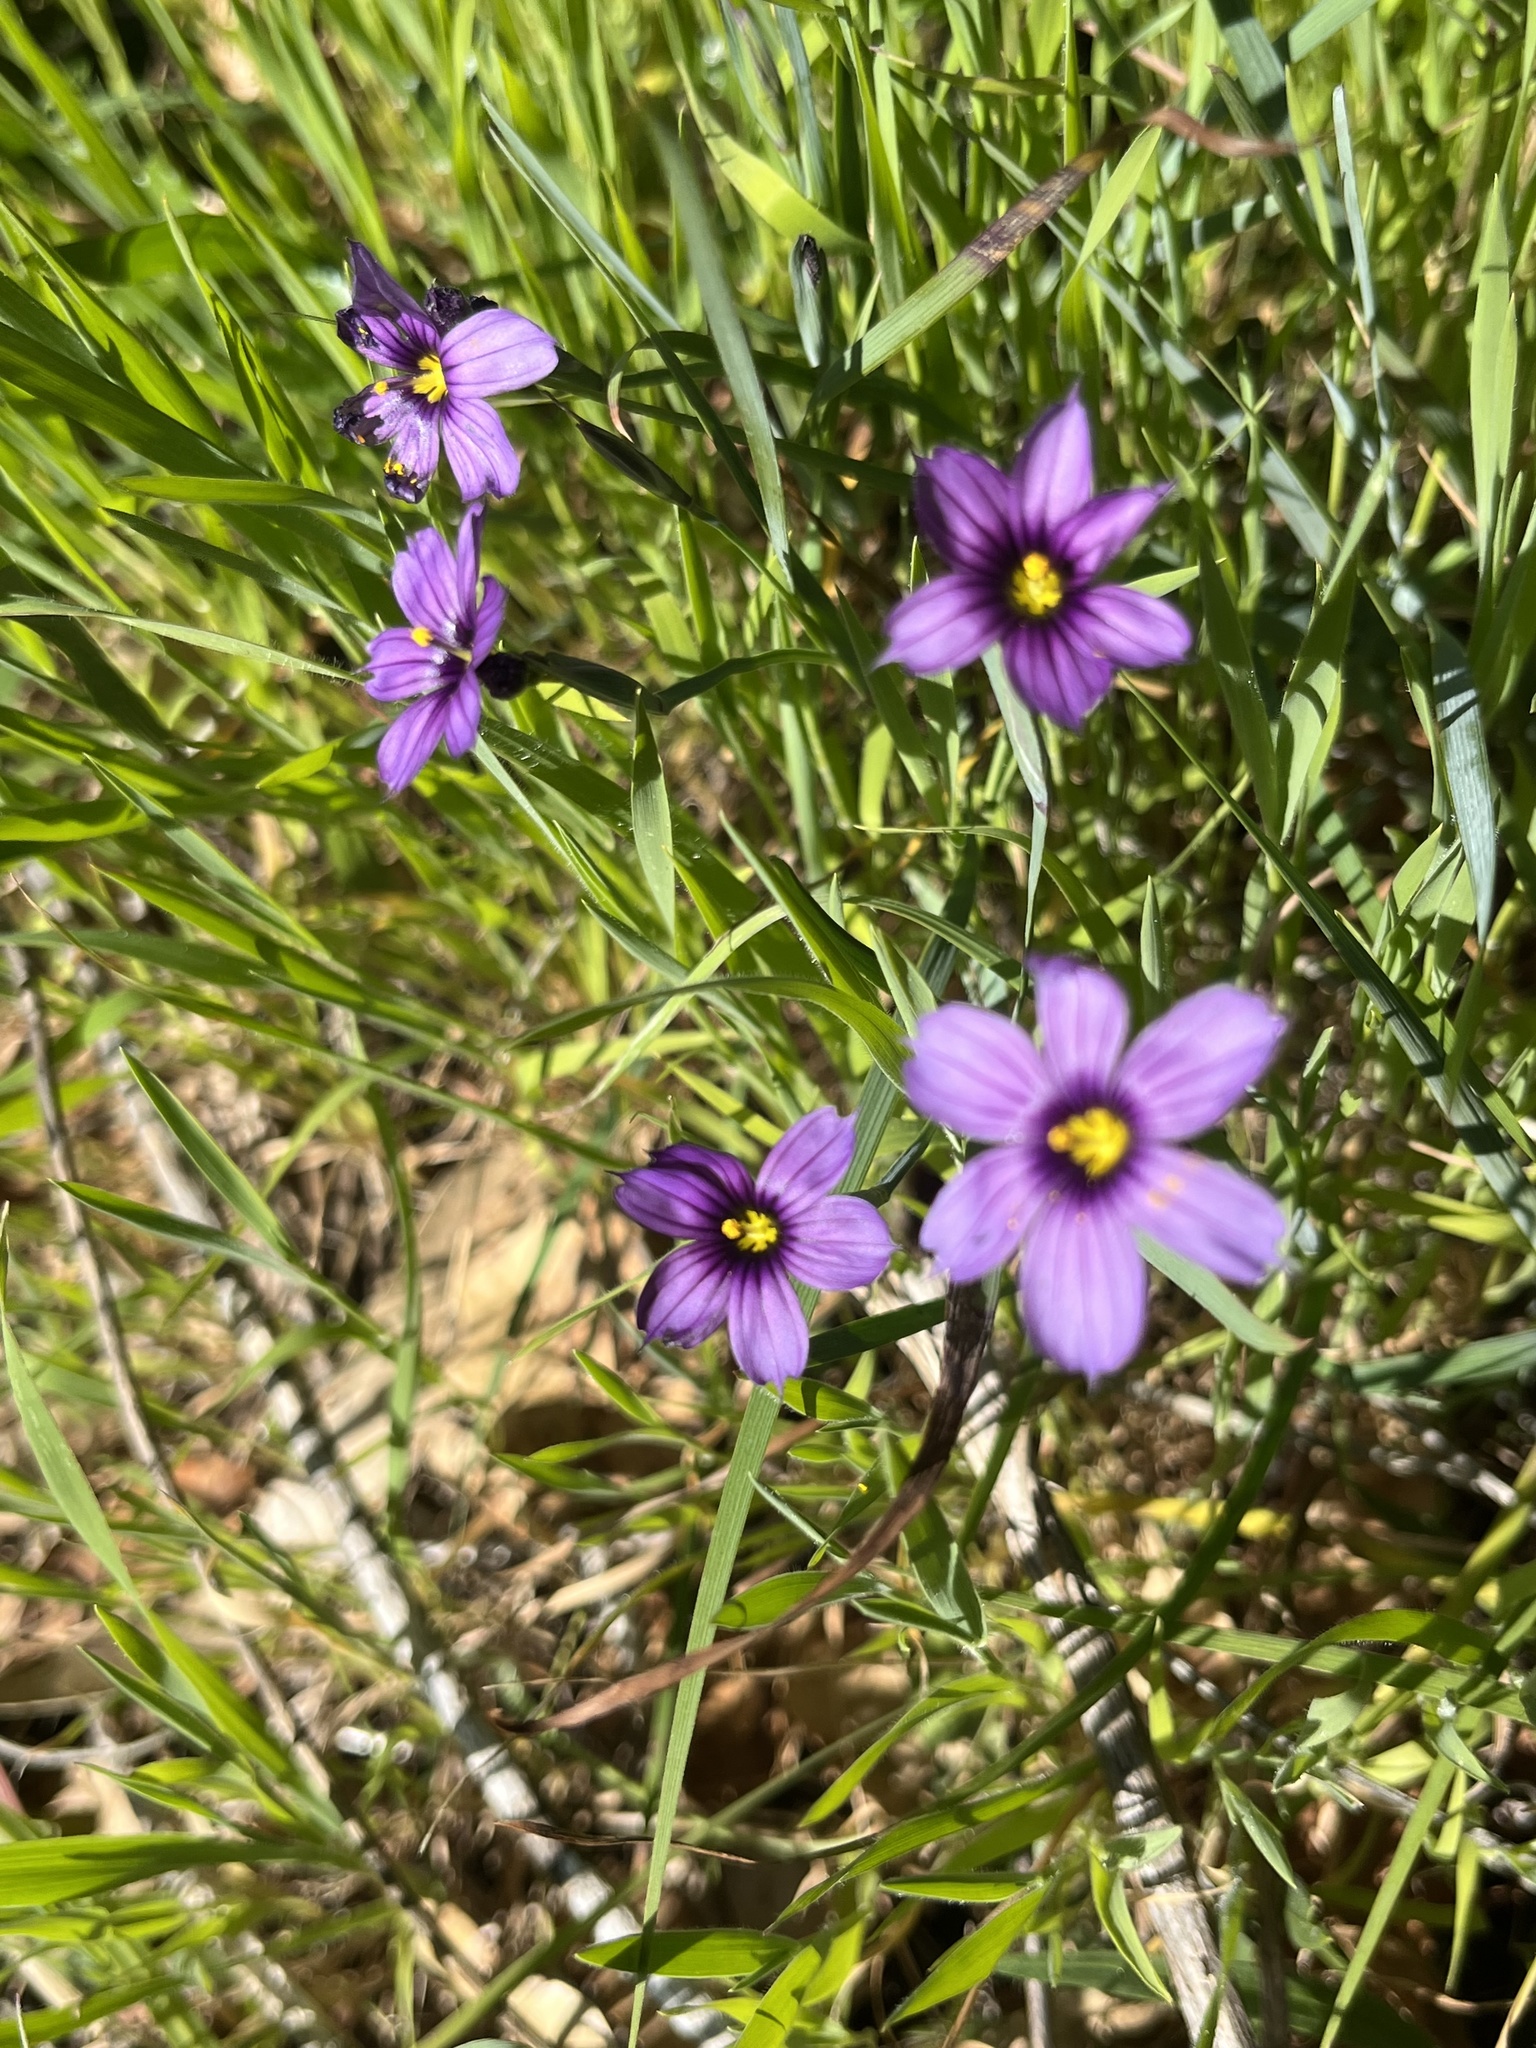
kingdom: Plantae
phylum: Tracheophyta
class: Liliopsida
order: Asparagales
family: Iridaceae
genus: Sisyrinchium
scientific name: Sisyrinchium bellum
